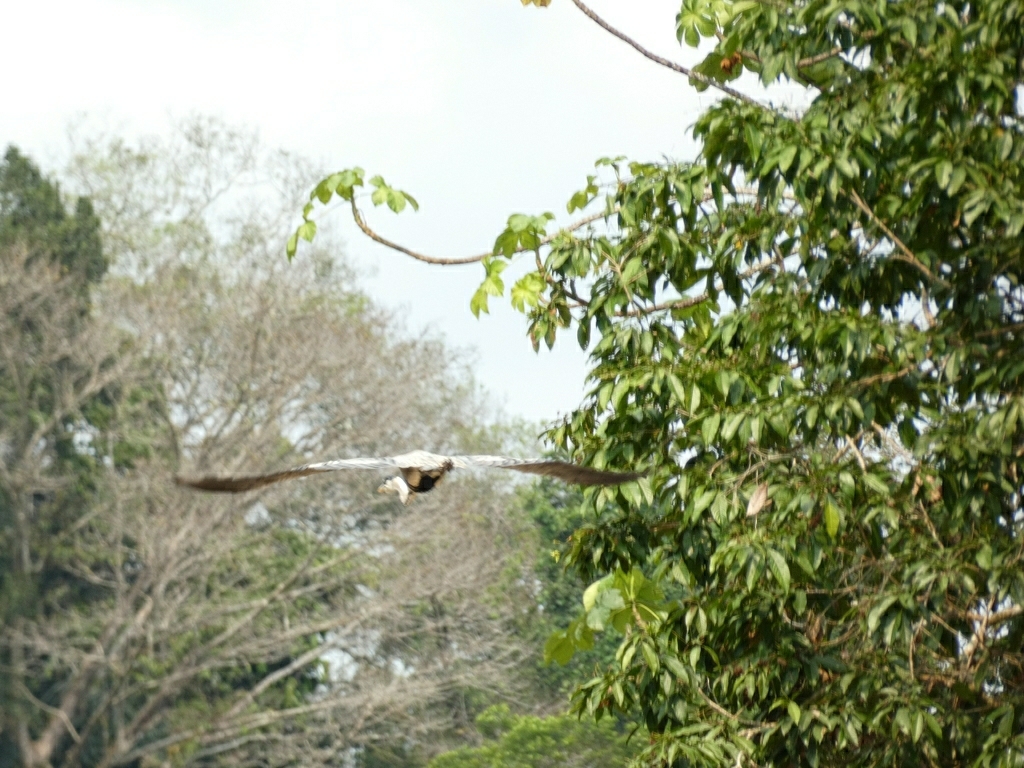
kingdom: Animalia
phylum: Chordata
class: Aves
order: Pelecaniformes
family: Ardeidae
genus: Ardea
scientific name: Ardea cocoi
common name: Cocoi heron
